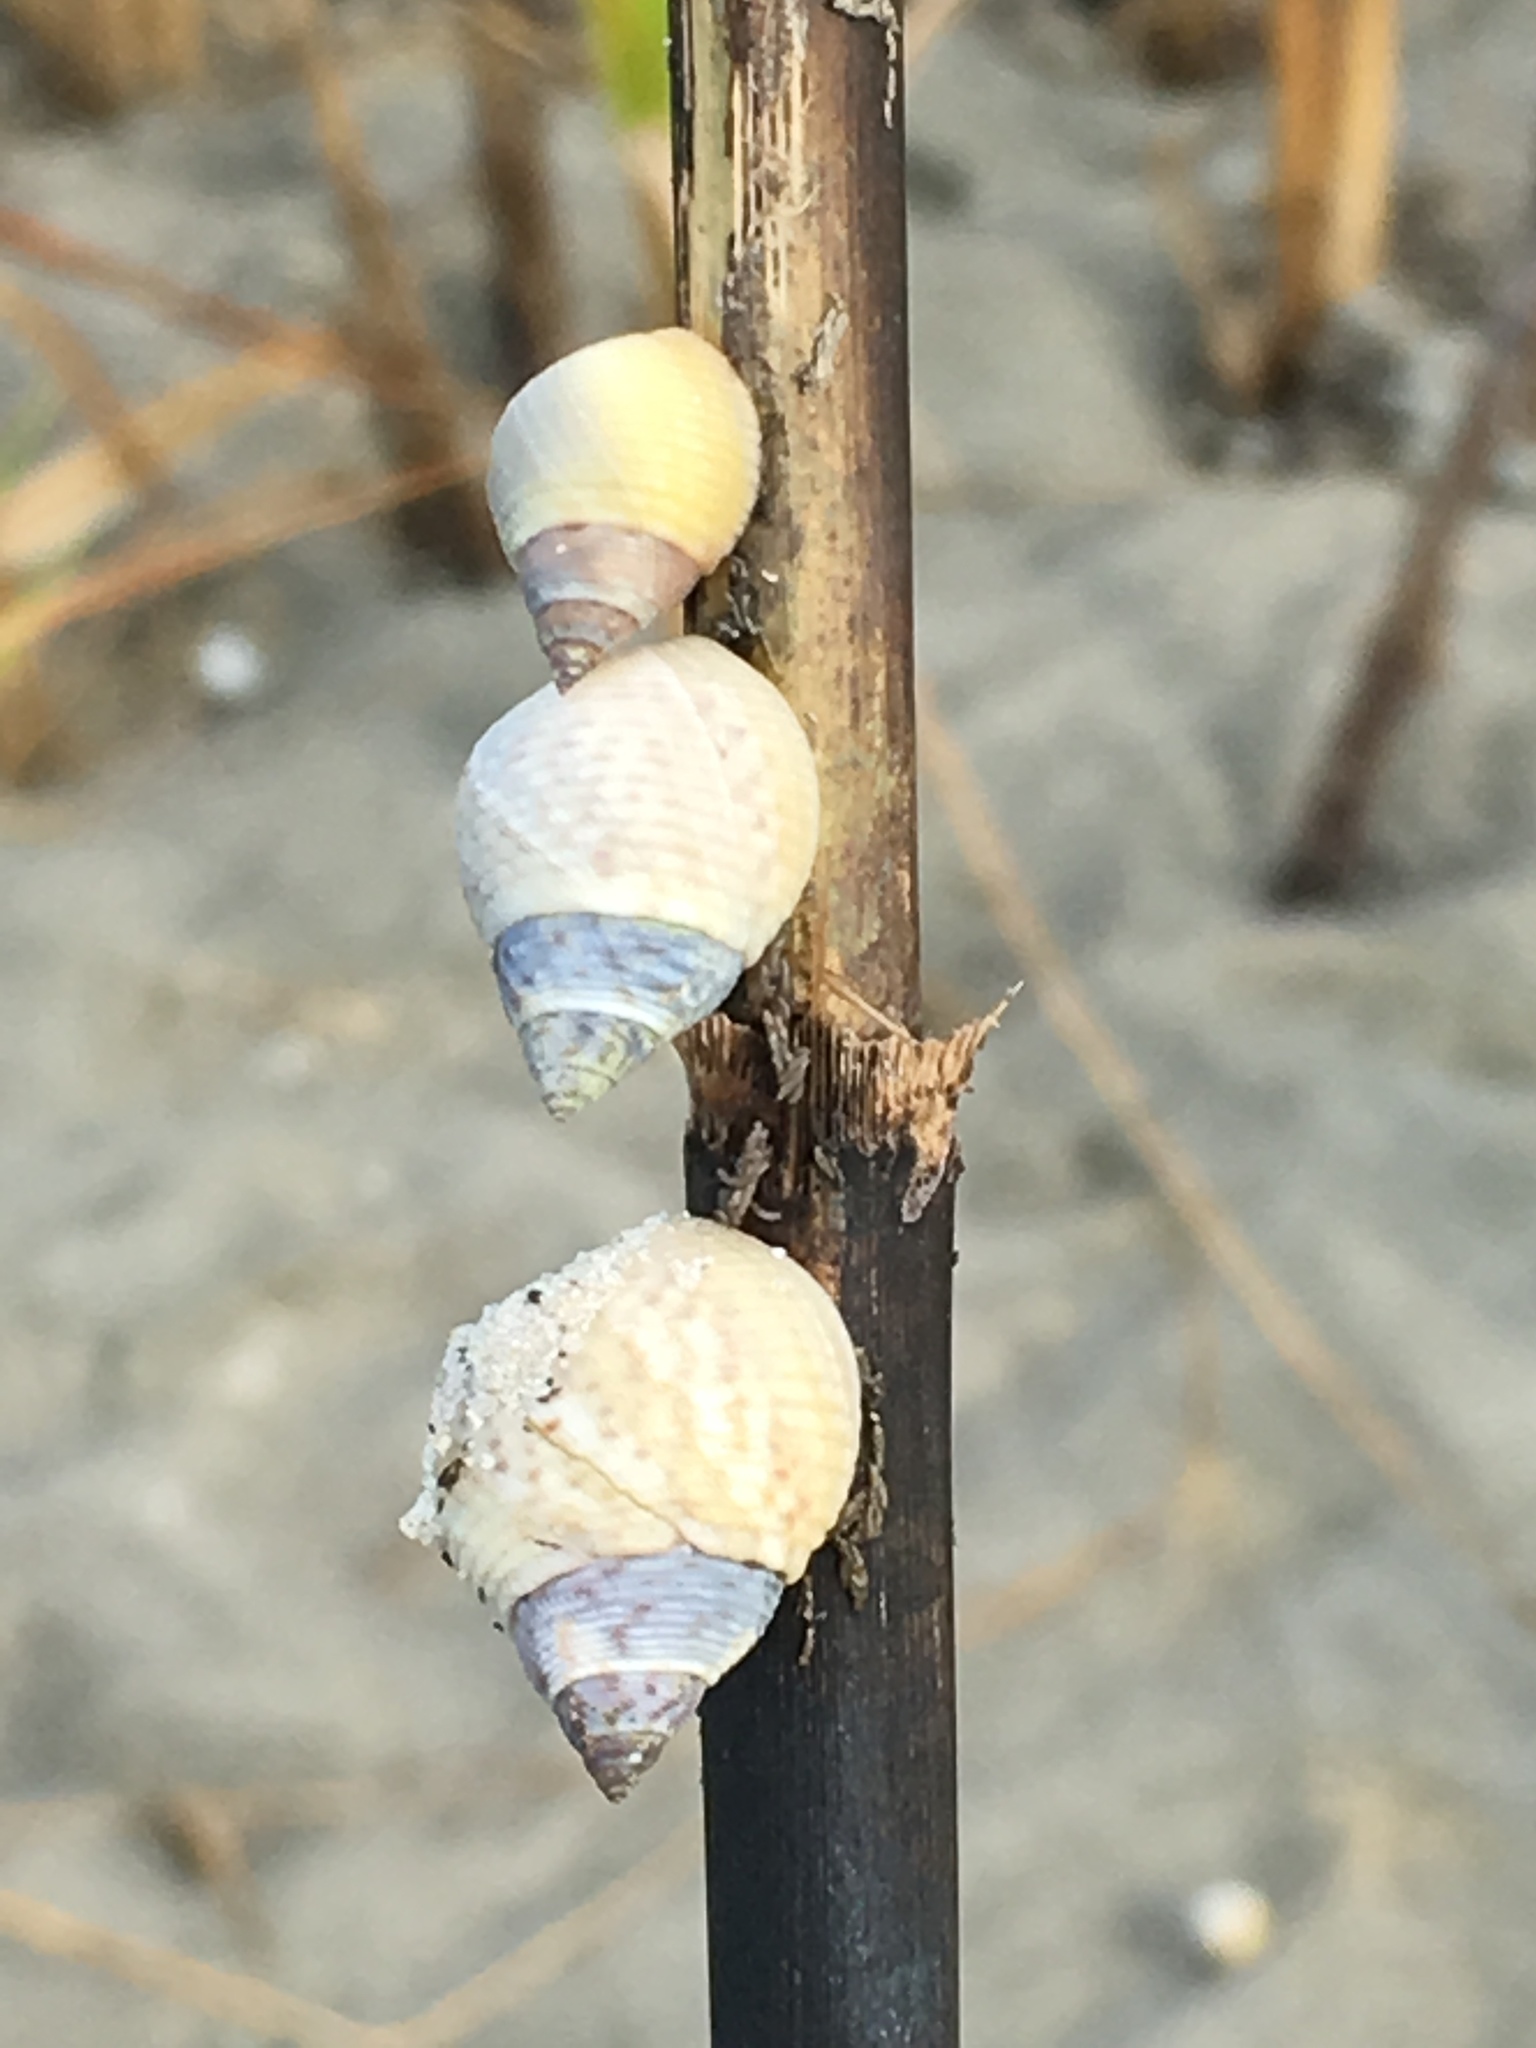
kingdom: Animalia
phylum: Mollusca
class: Gastropoda
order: Littorinimorpha
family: Littorinidae
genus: Littoraria
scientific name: Littoraria irrorata
